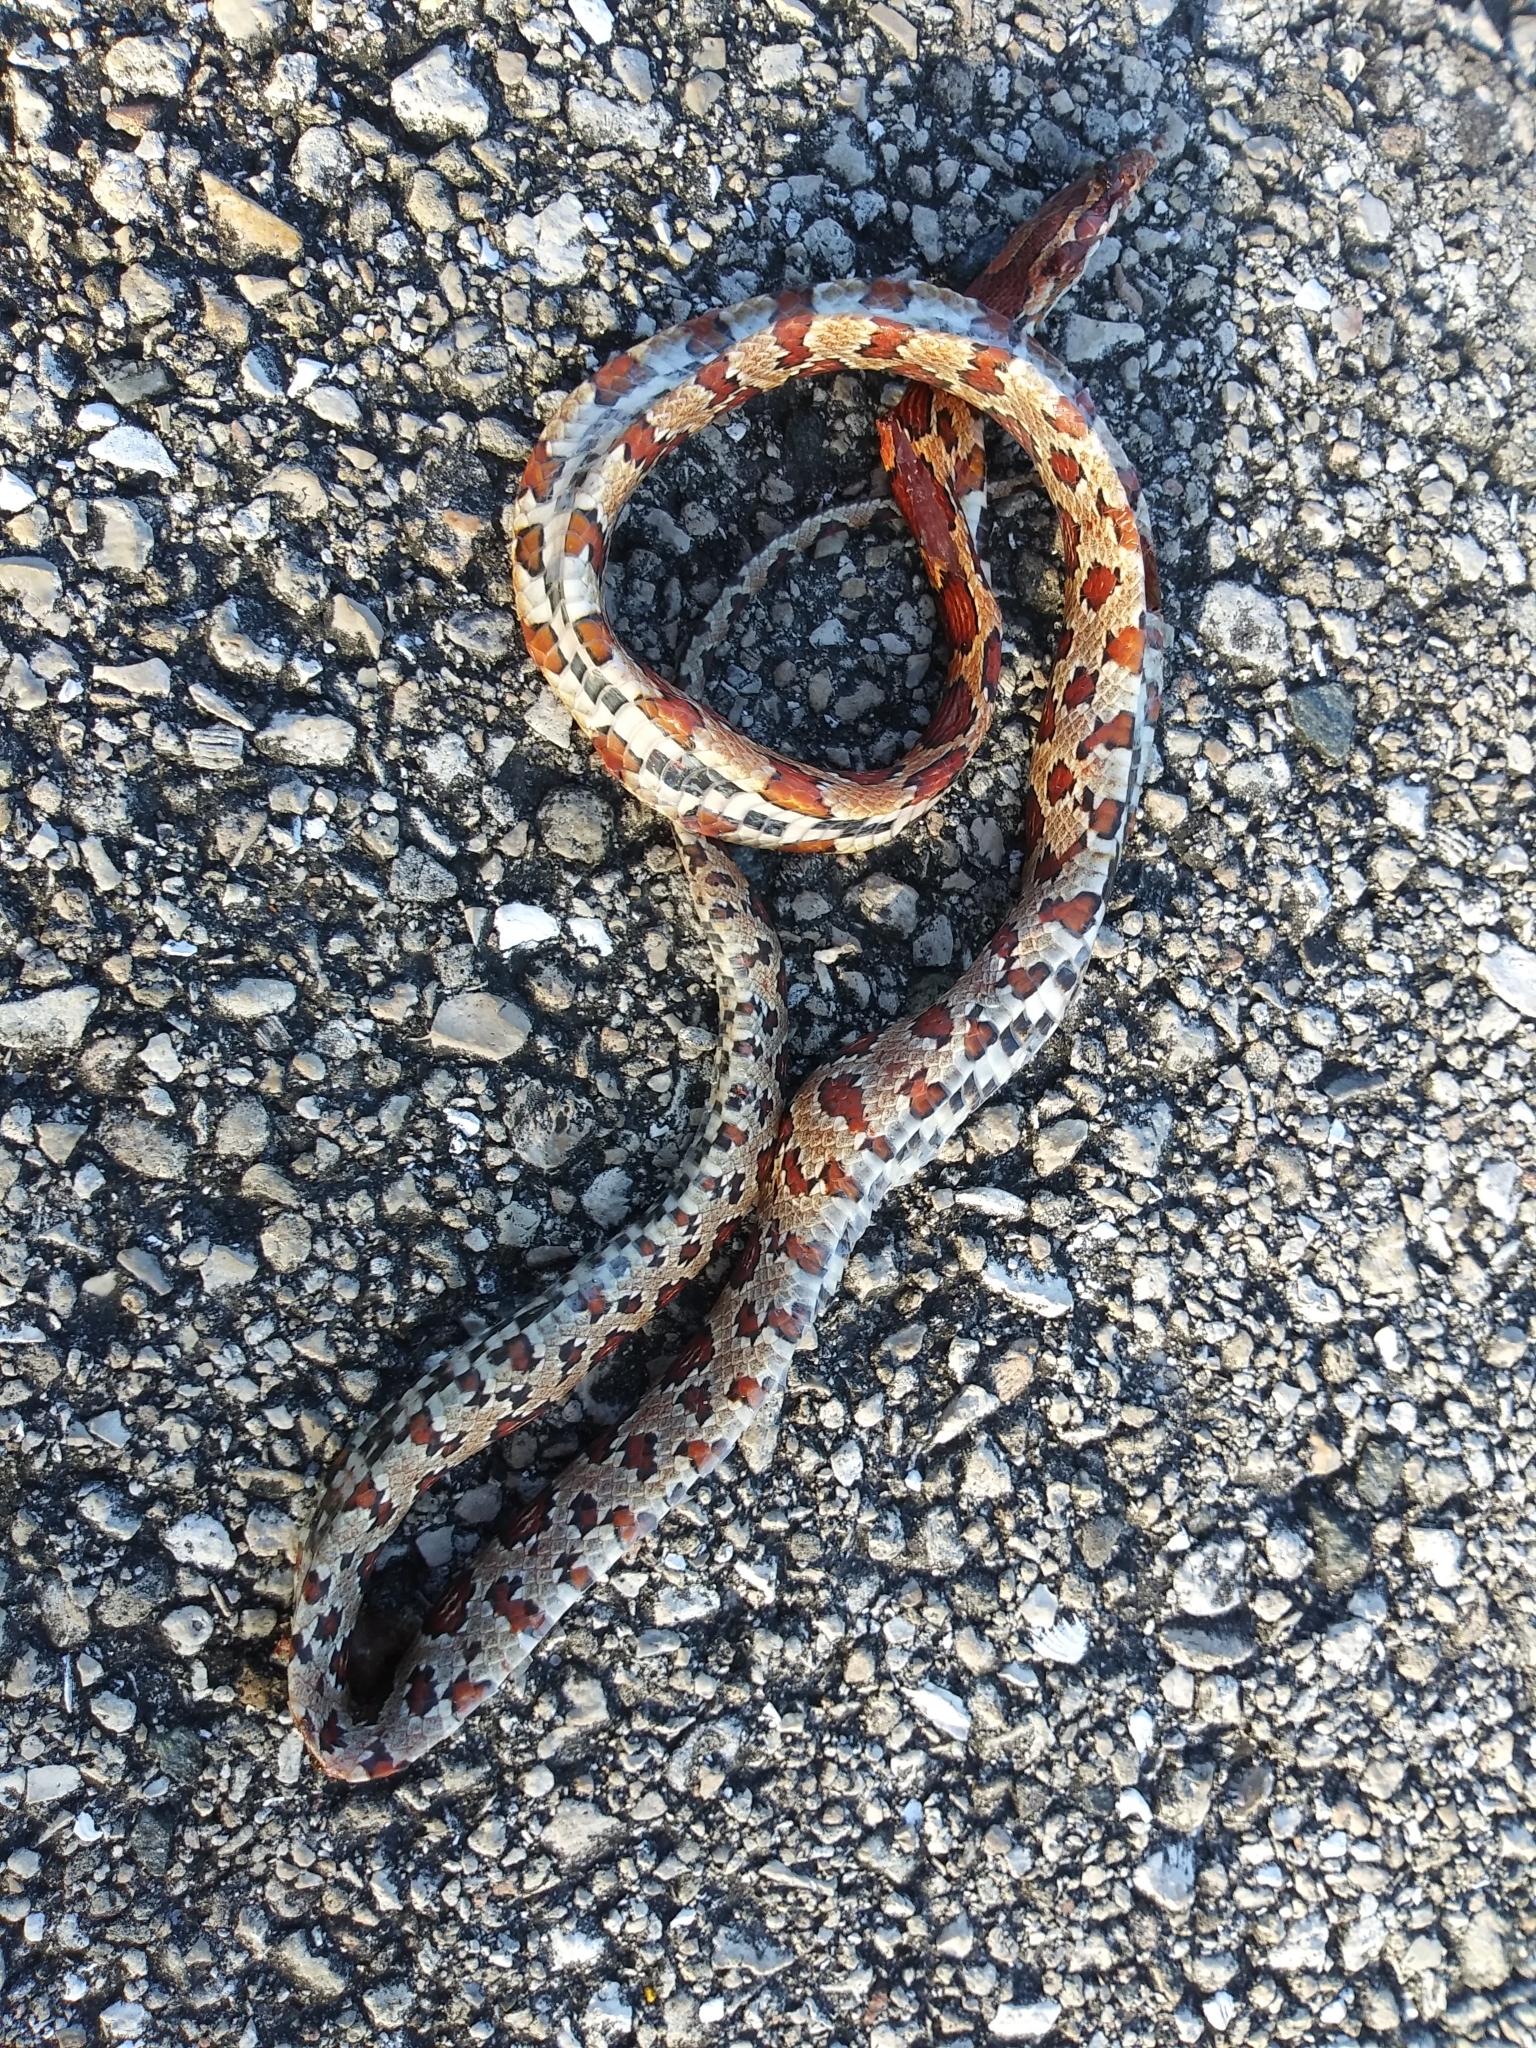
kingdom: Animalia
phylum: Chordata
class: Squamata
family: Colubridae
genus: Pantherophis
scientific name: Pantherophis guttatus
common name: Red cornsnake
